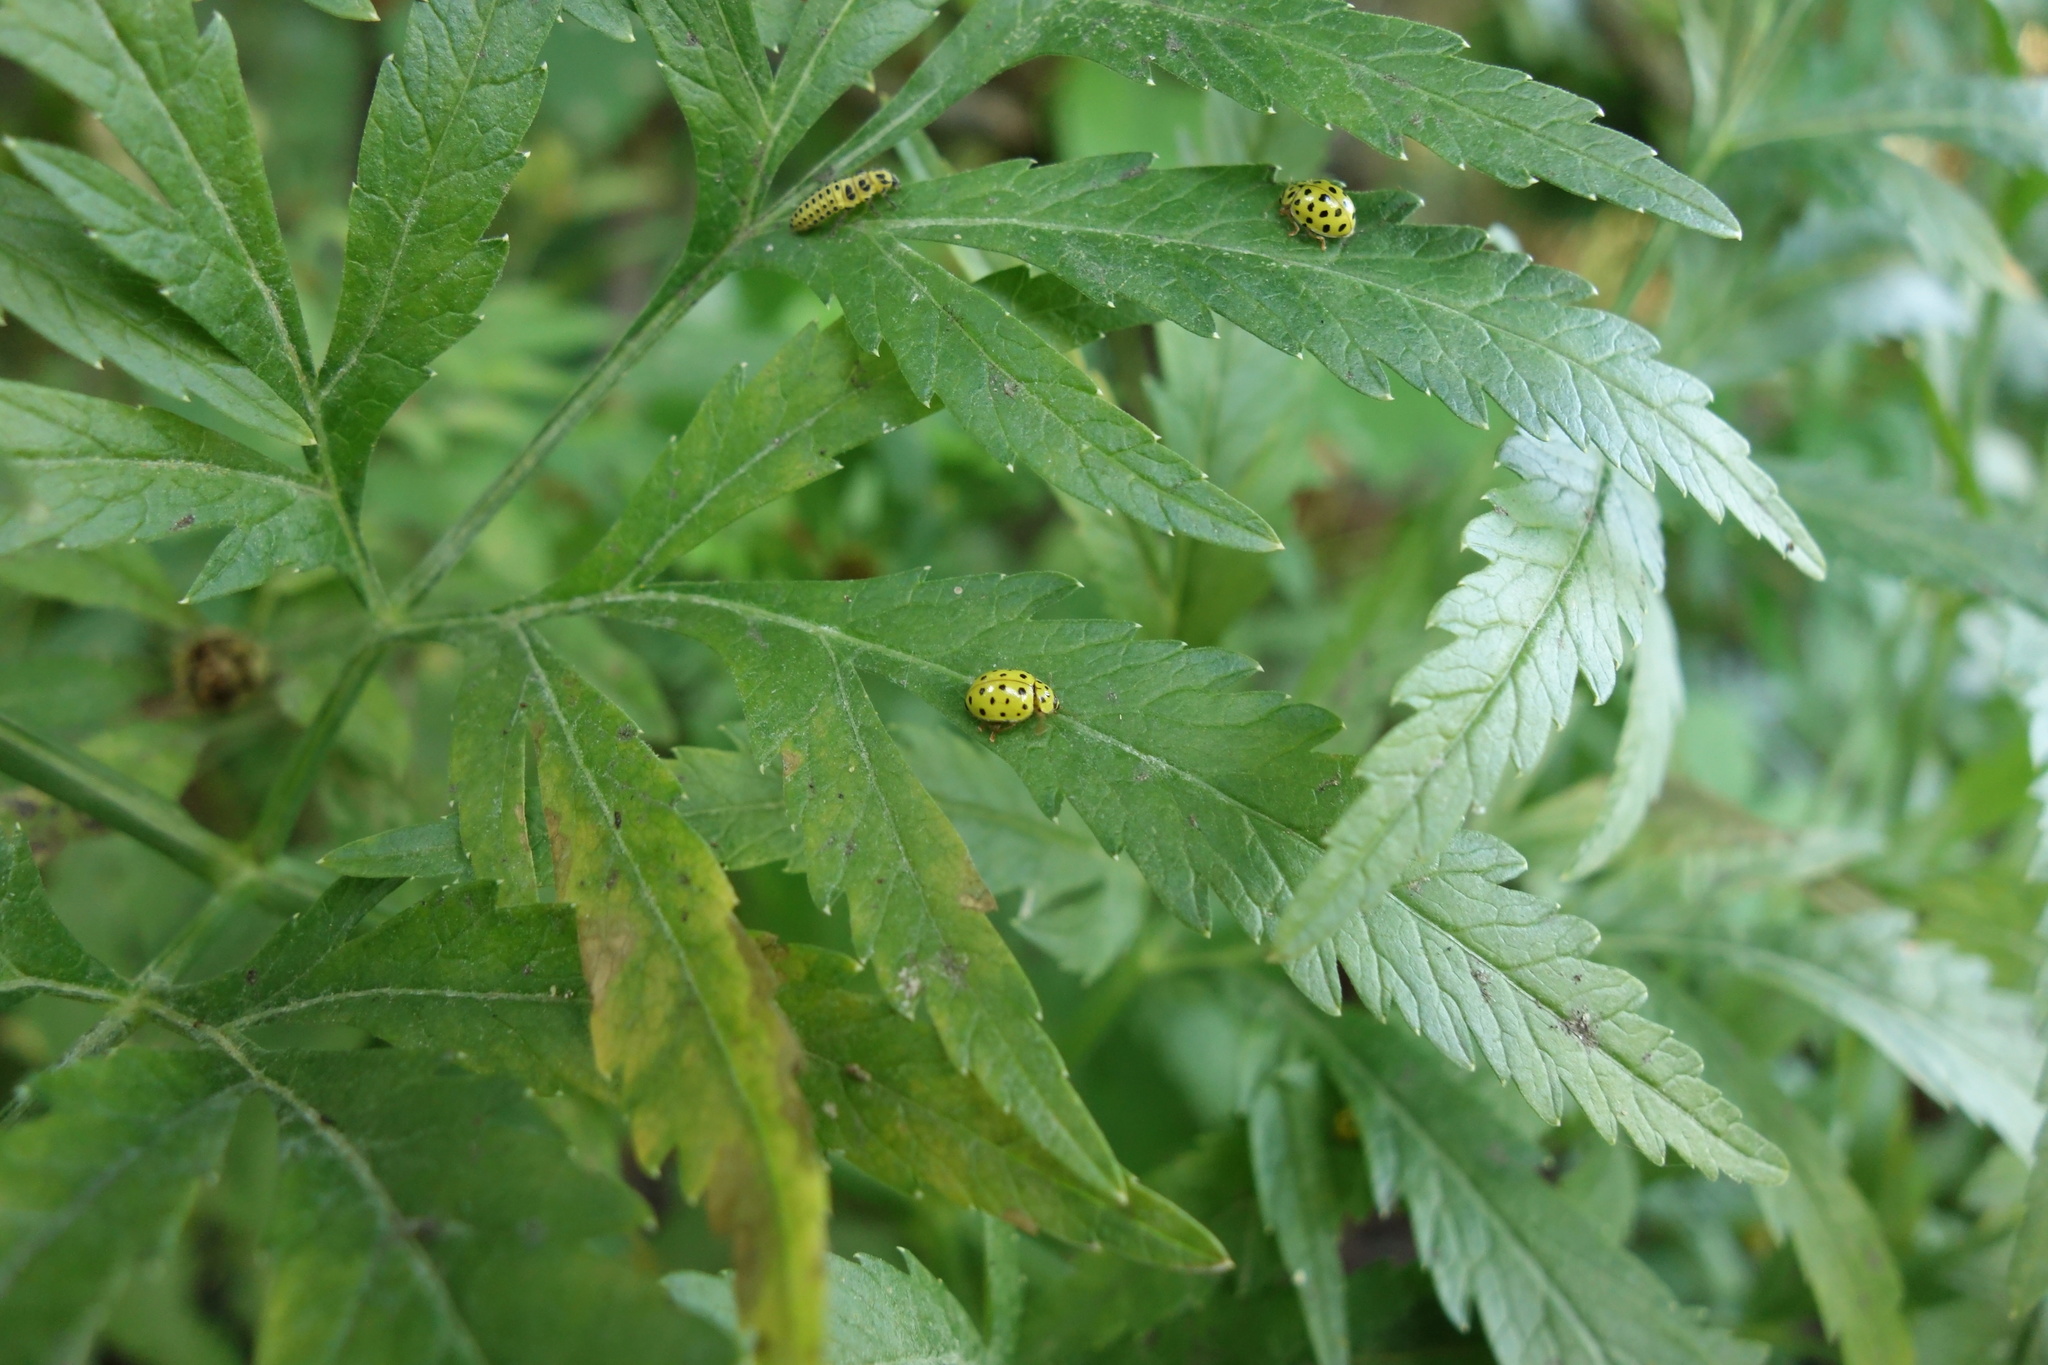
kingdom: Animalia
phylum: Arthropoda
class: Insecta
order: Coleoptera
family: Coccinellidae
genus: Psyllobora
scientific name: Psyllobora vigintiduopunctata
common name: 22-spot ladybird
